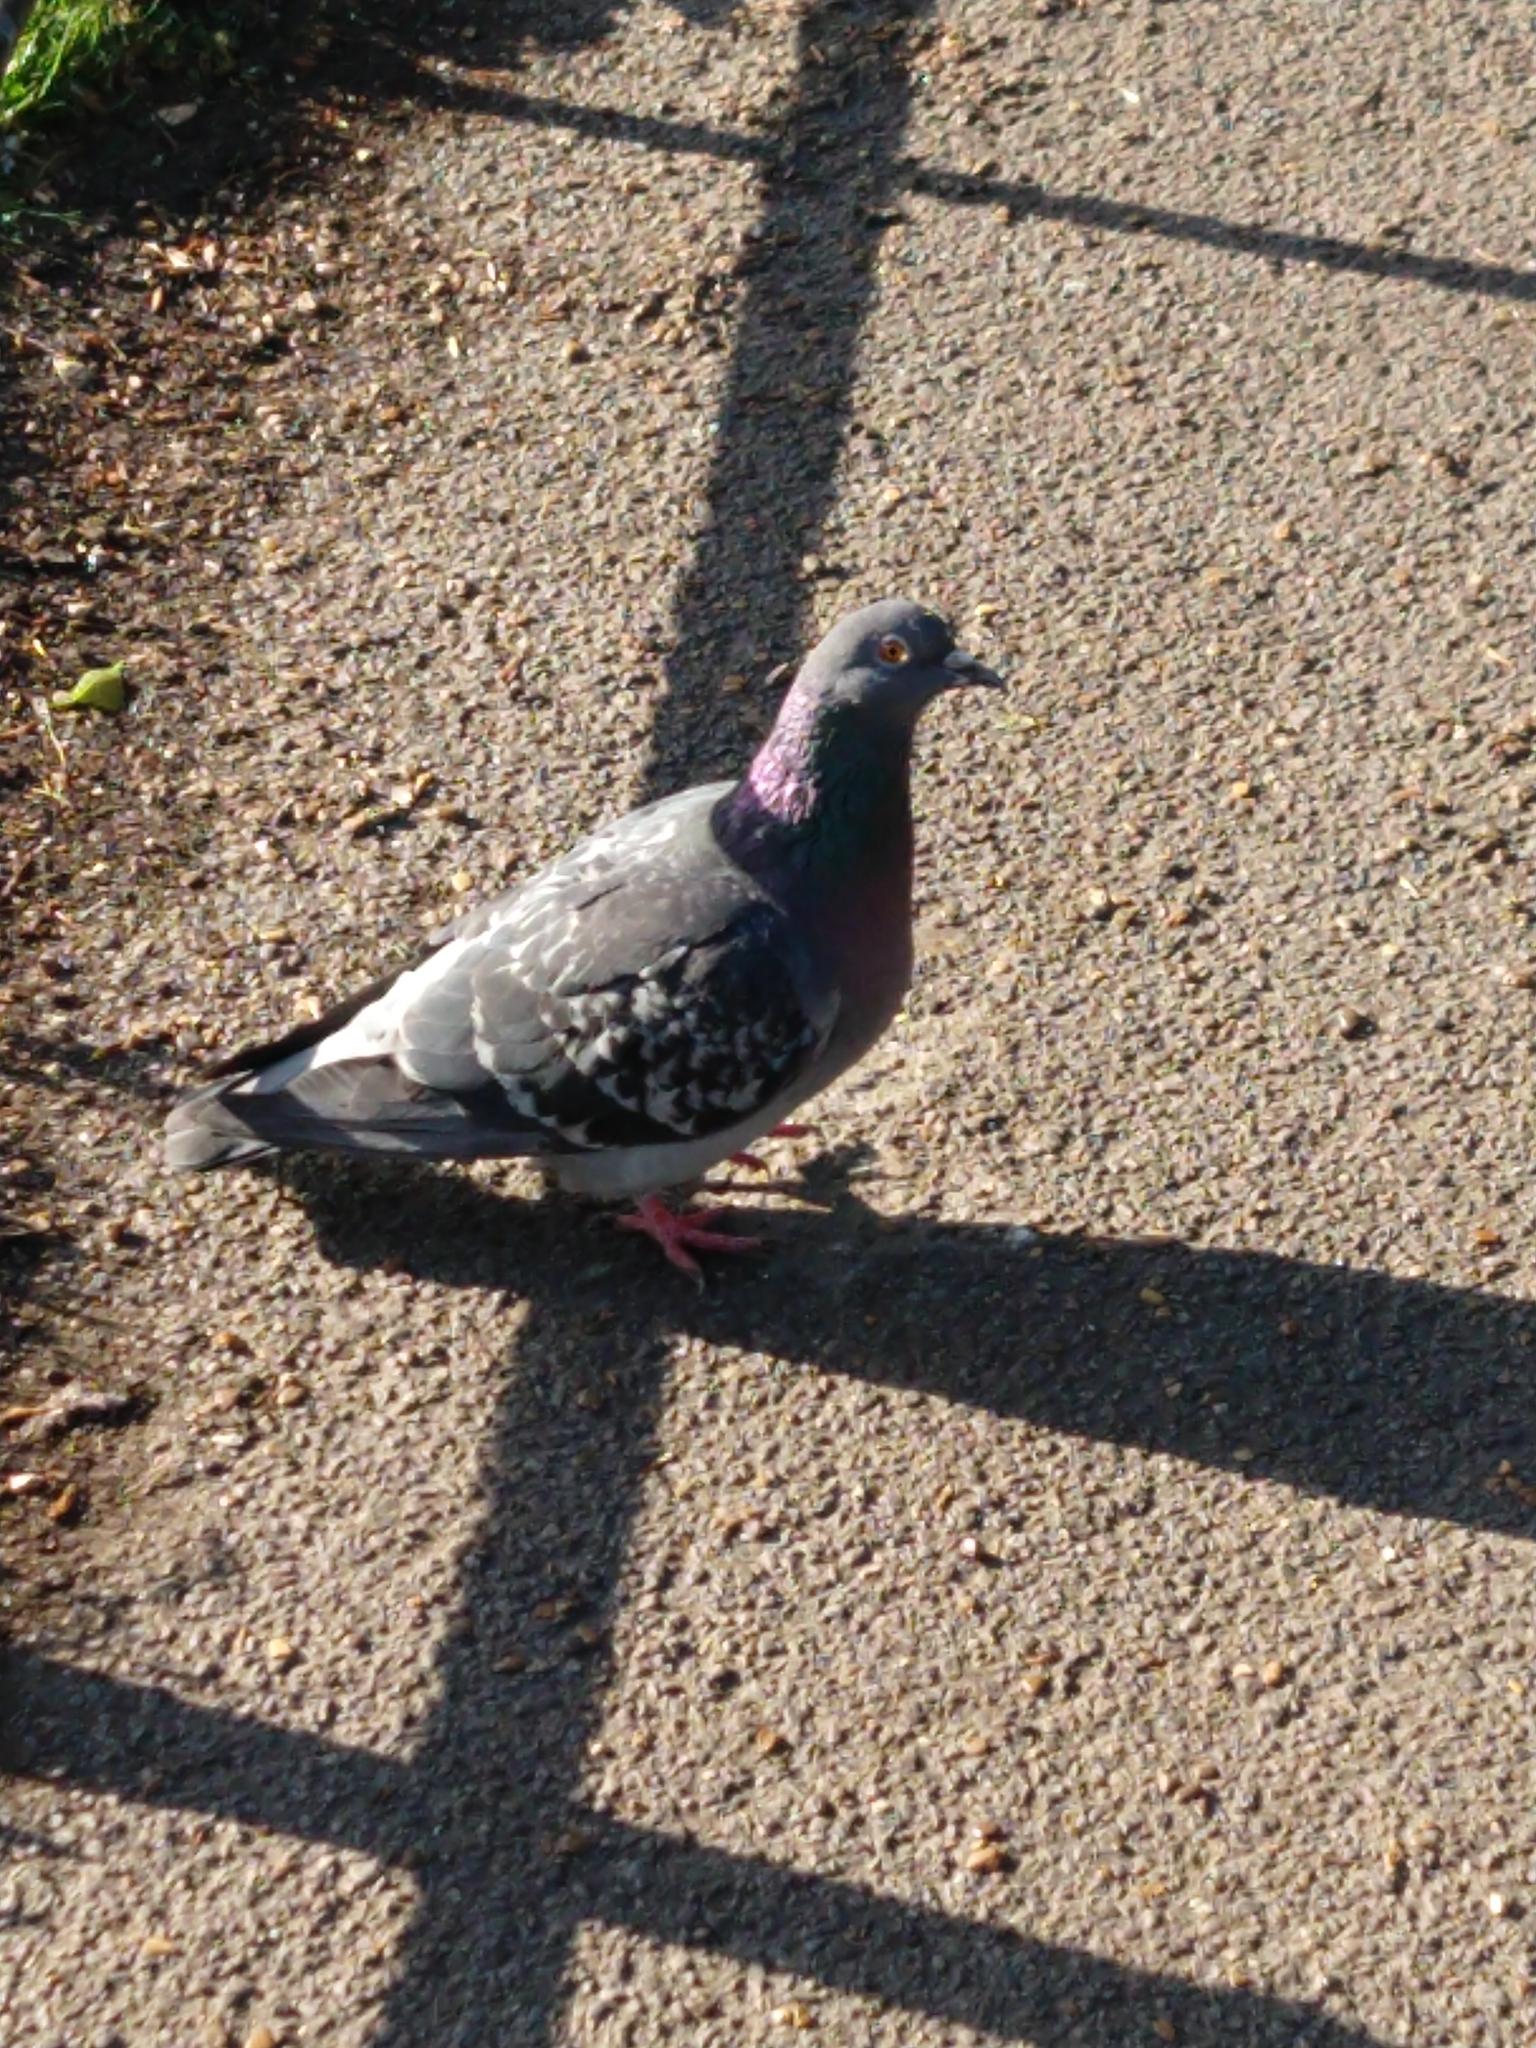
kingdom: Animalia
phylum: Chordata
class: Aves
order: Columbiformes
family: Columbidae
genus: Columba
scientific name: Columba livia
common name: Rock pigeon
